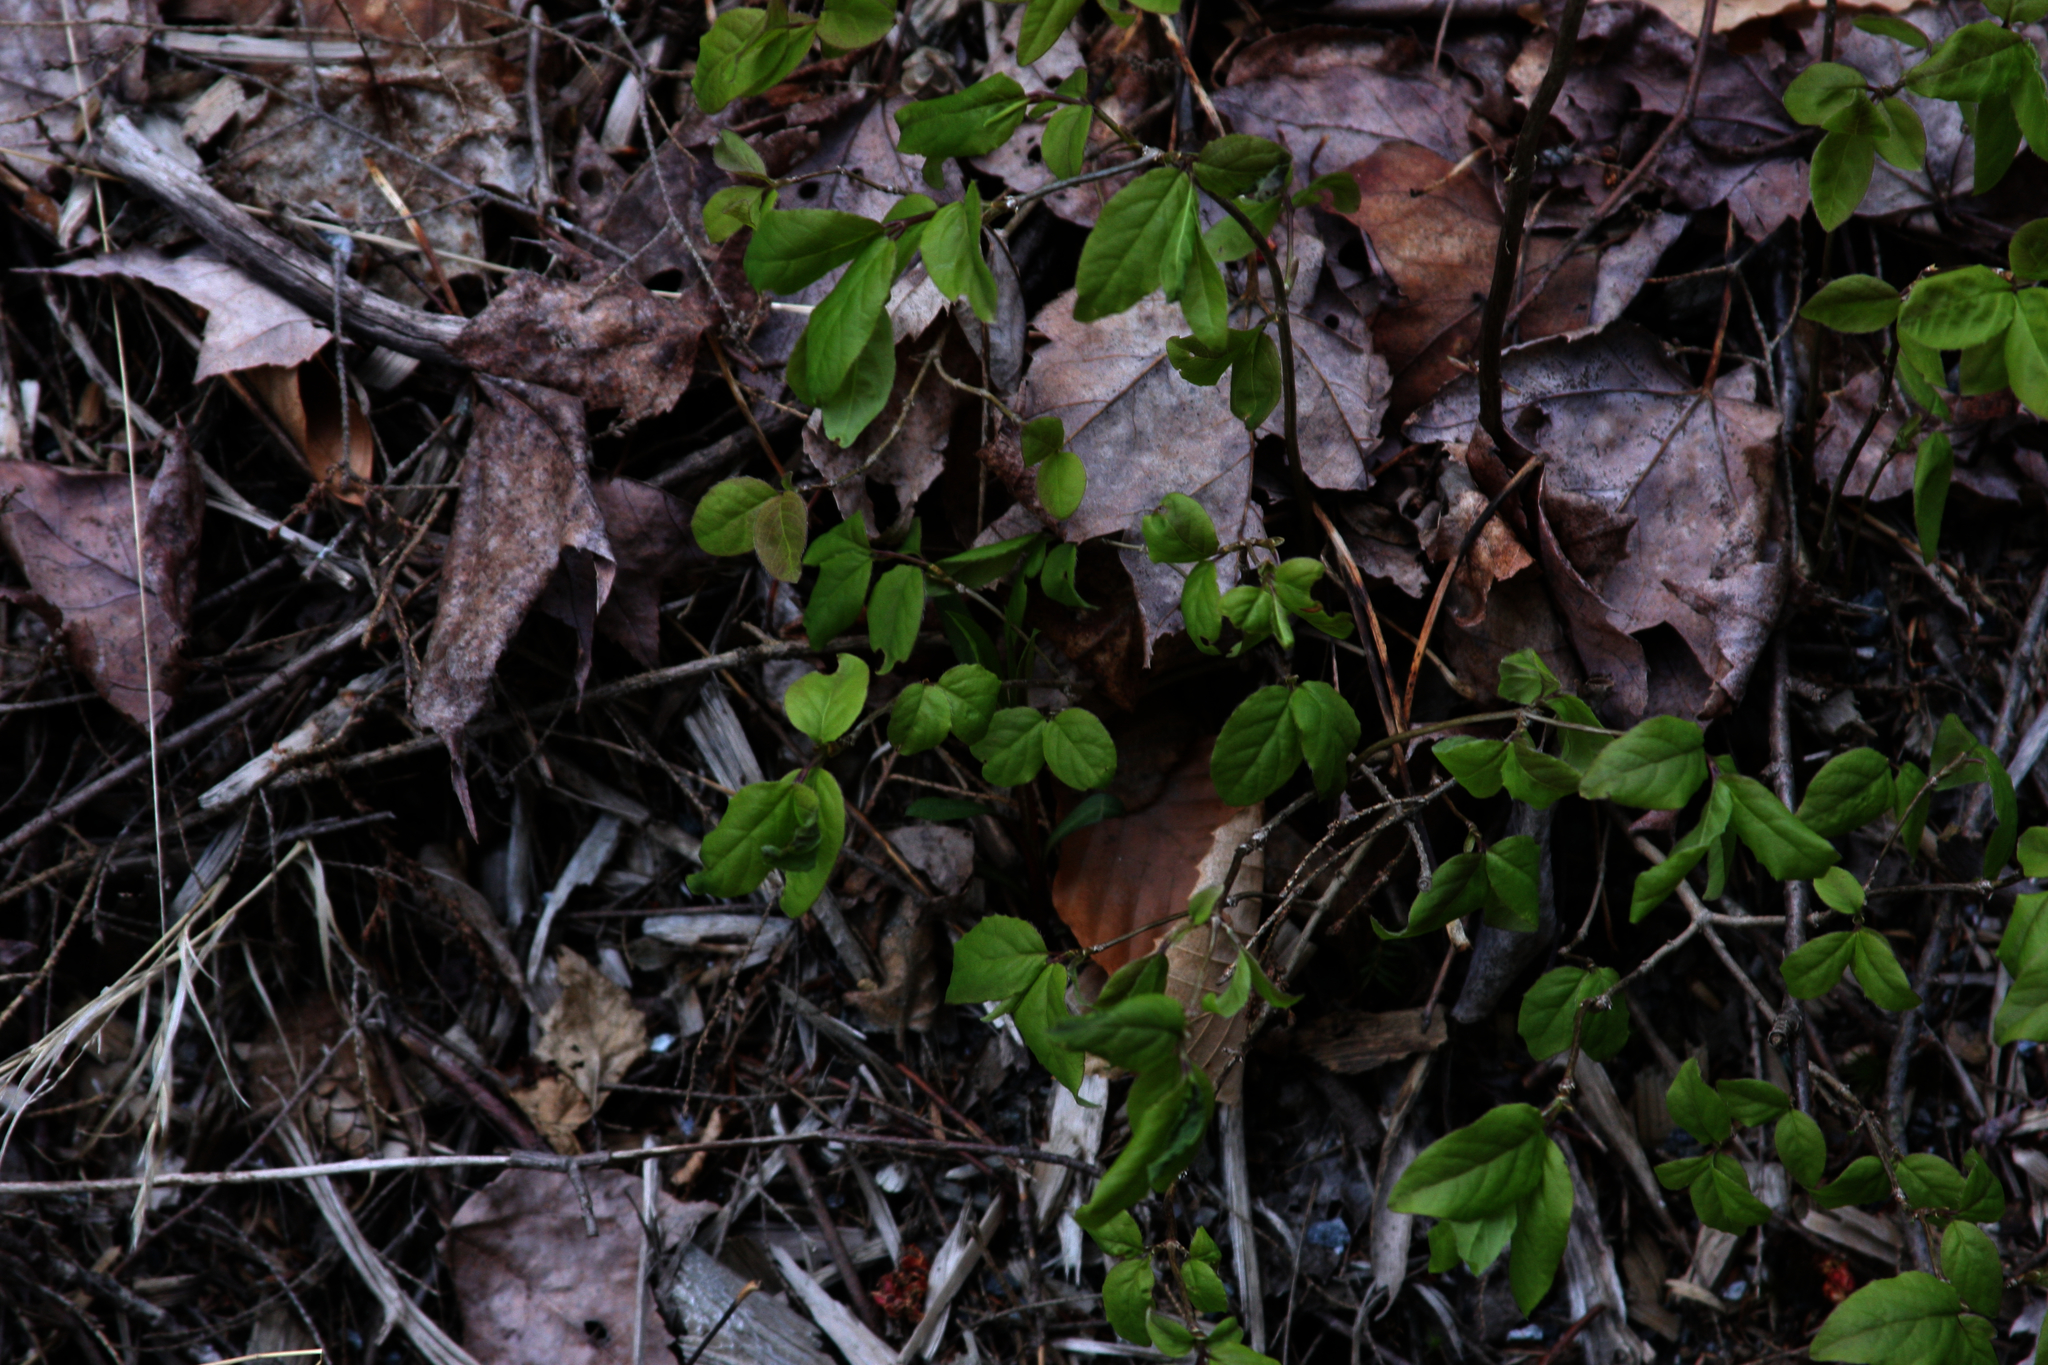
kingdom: Plantae
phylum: Tracheophyta
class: Magnoliopsida
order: Dipsacales
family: Caprifoliaceae
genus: Lonicera
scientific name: Lonicera canadensis
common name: American fly-honeysuckle
